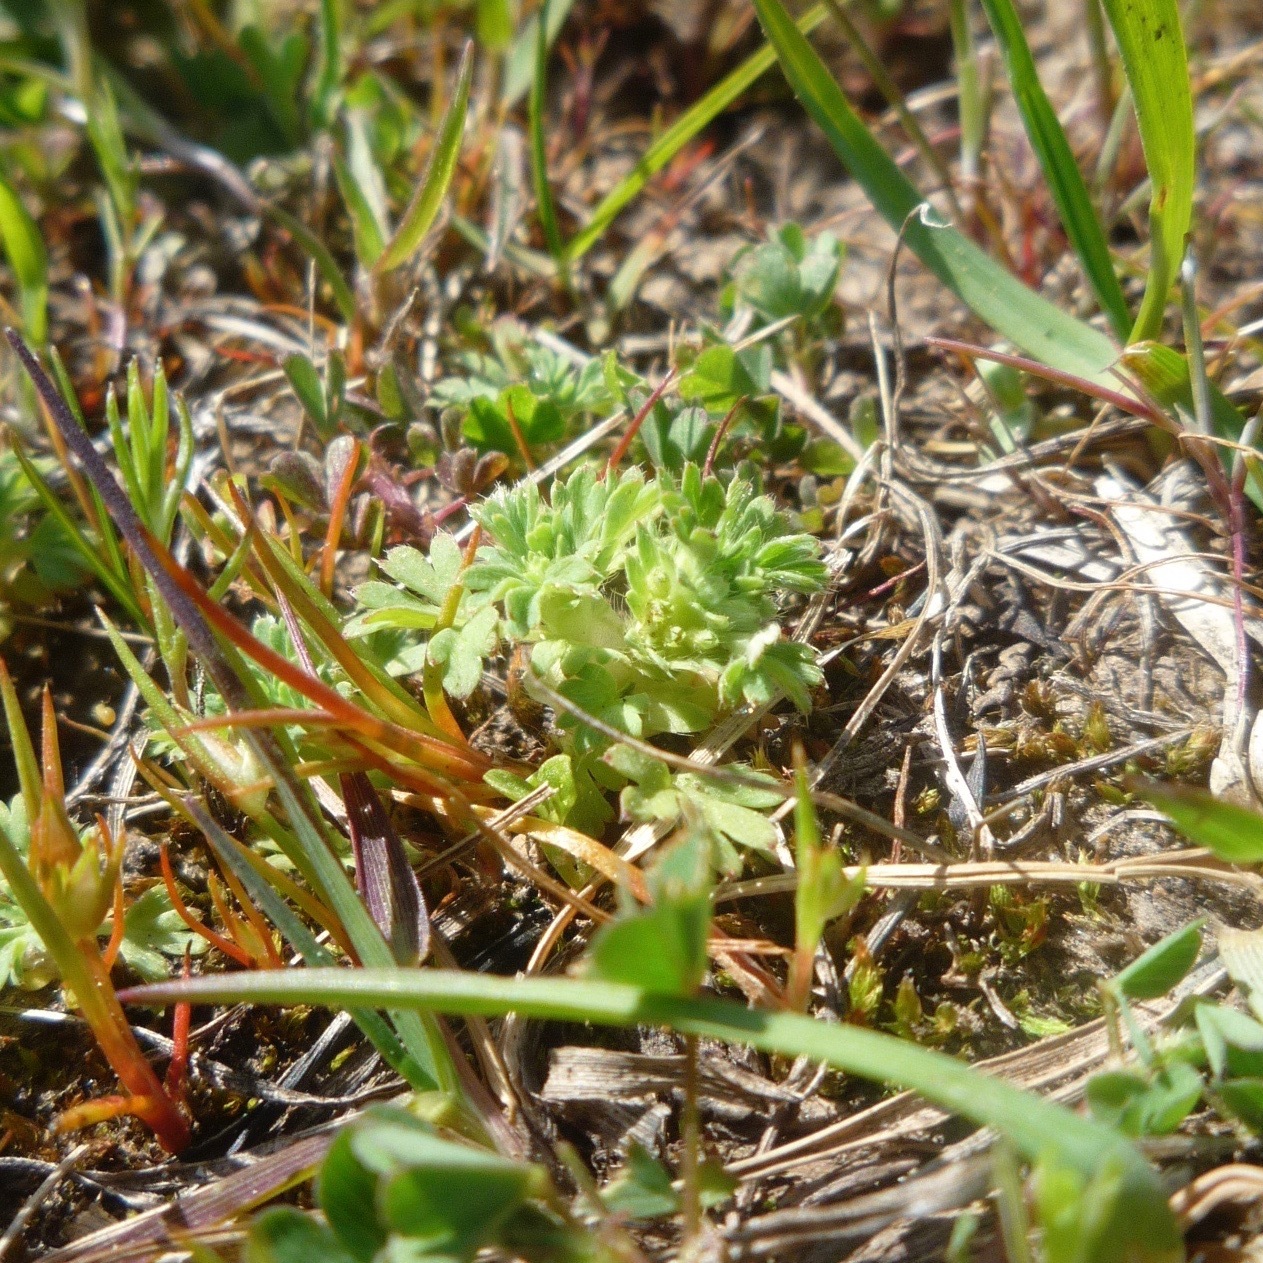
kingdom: Plantae
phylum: Tracheophyta
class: Magnoliopsida
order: Rosales
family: Rosaceae
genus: Aphanes
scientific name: Aphanes arvensis
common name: Parsley-piert
